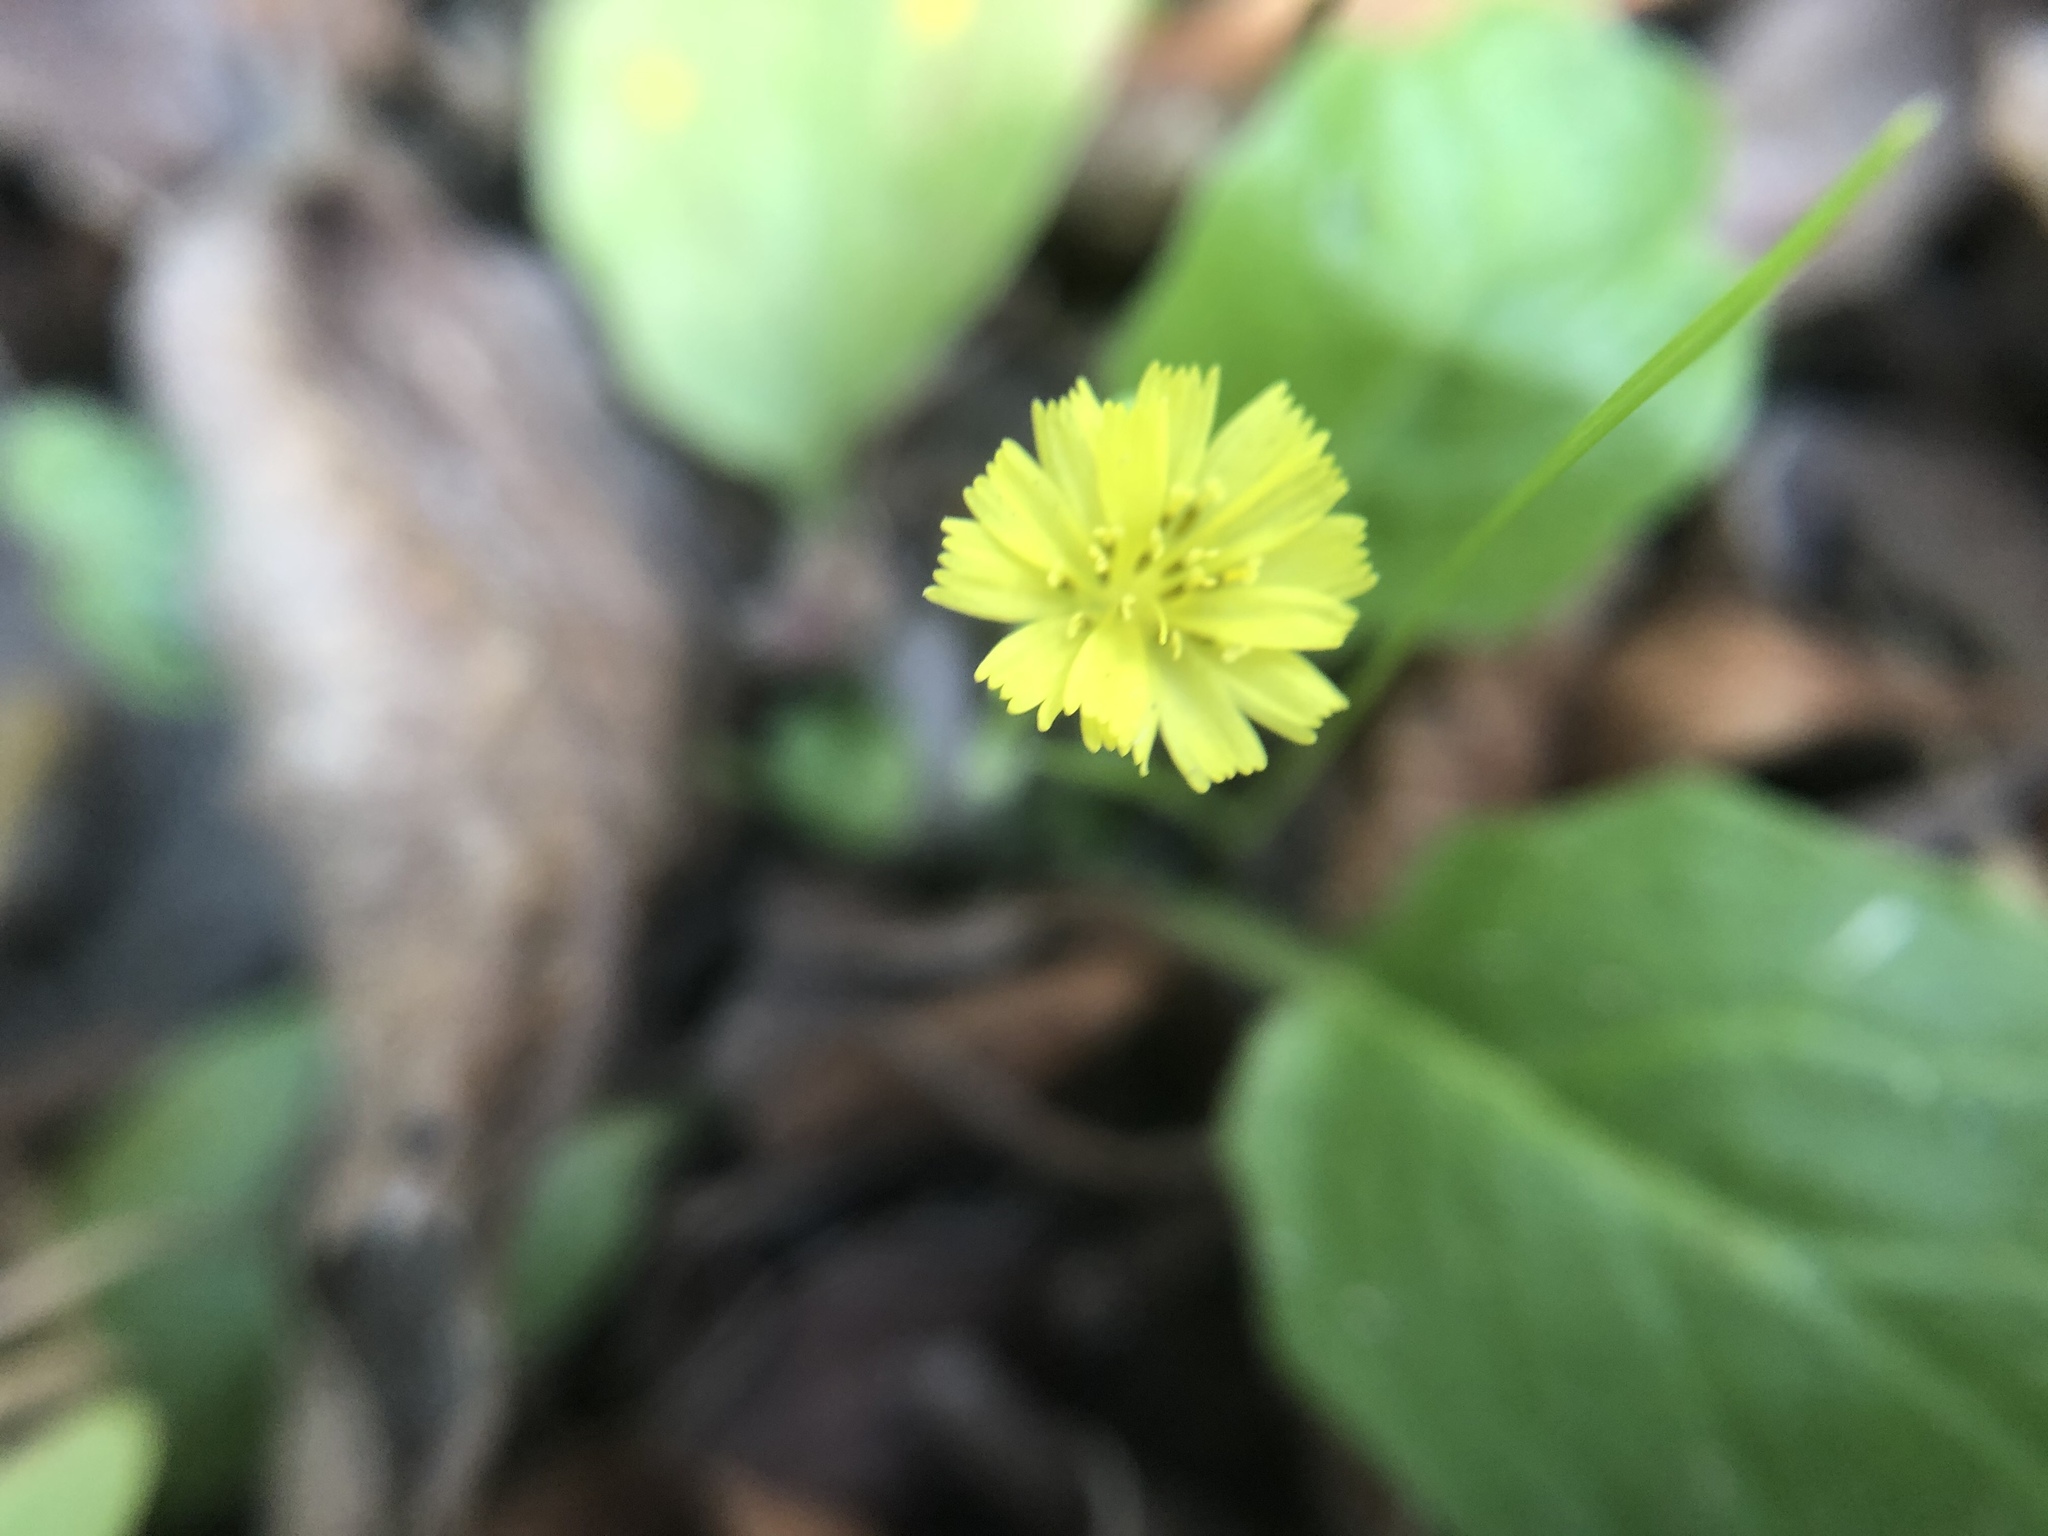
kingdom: Plantae
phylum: Tracheophyta
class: Magnoliopsida
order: Asterales
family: Asteraceae
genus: Youngia
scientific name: Youngia japonica
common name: Oriental false hawksbeard
